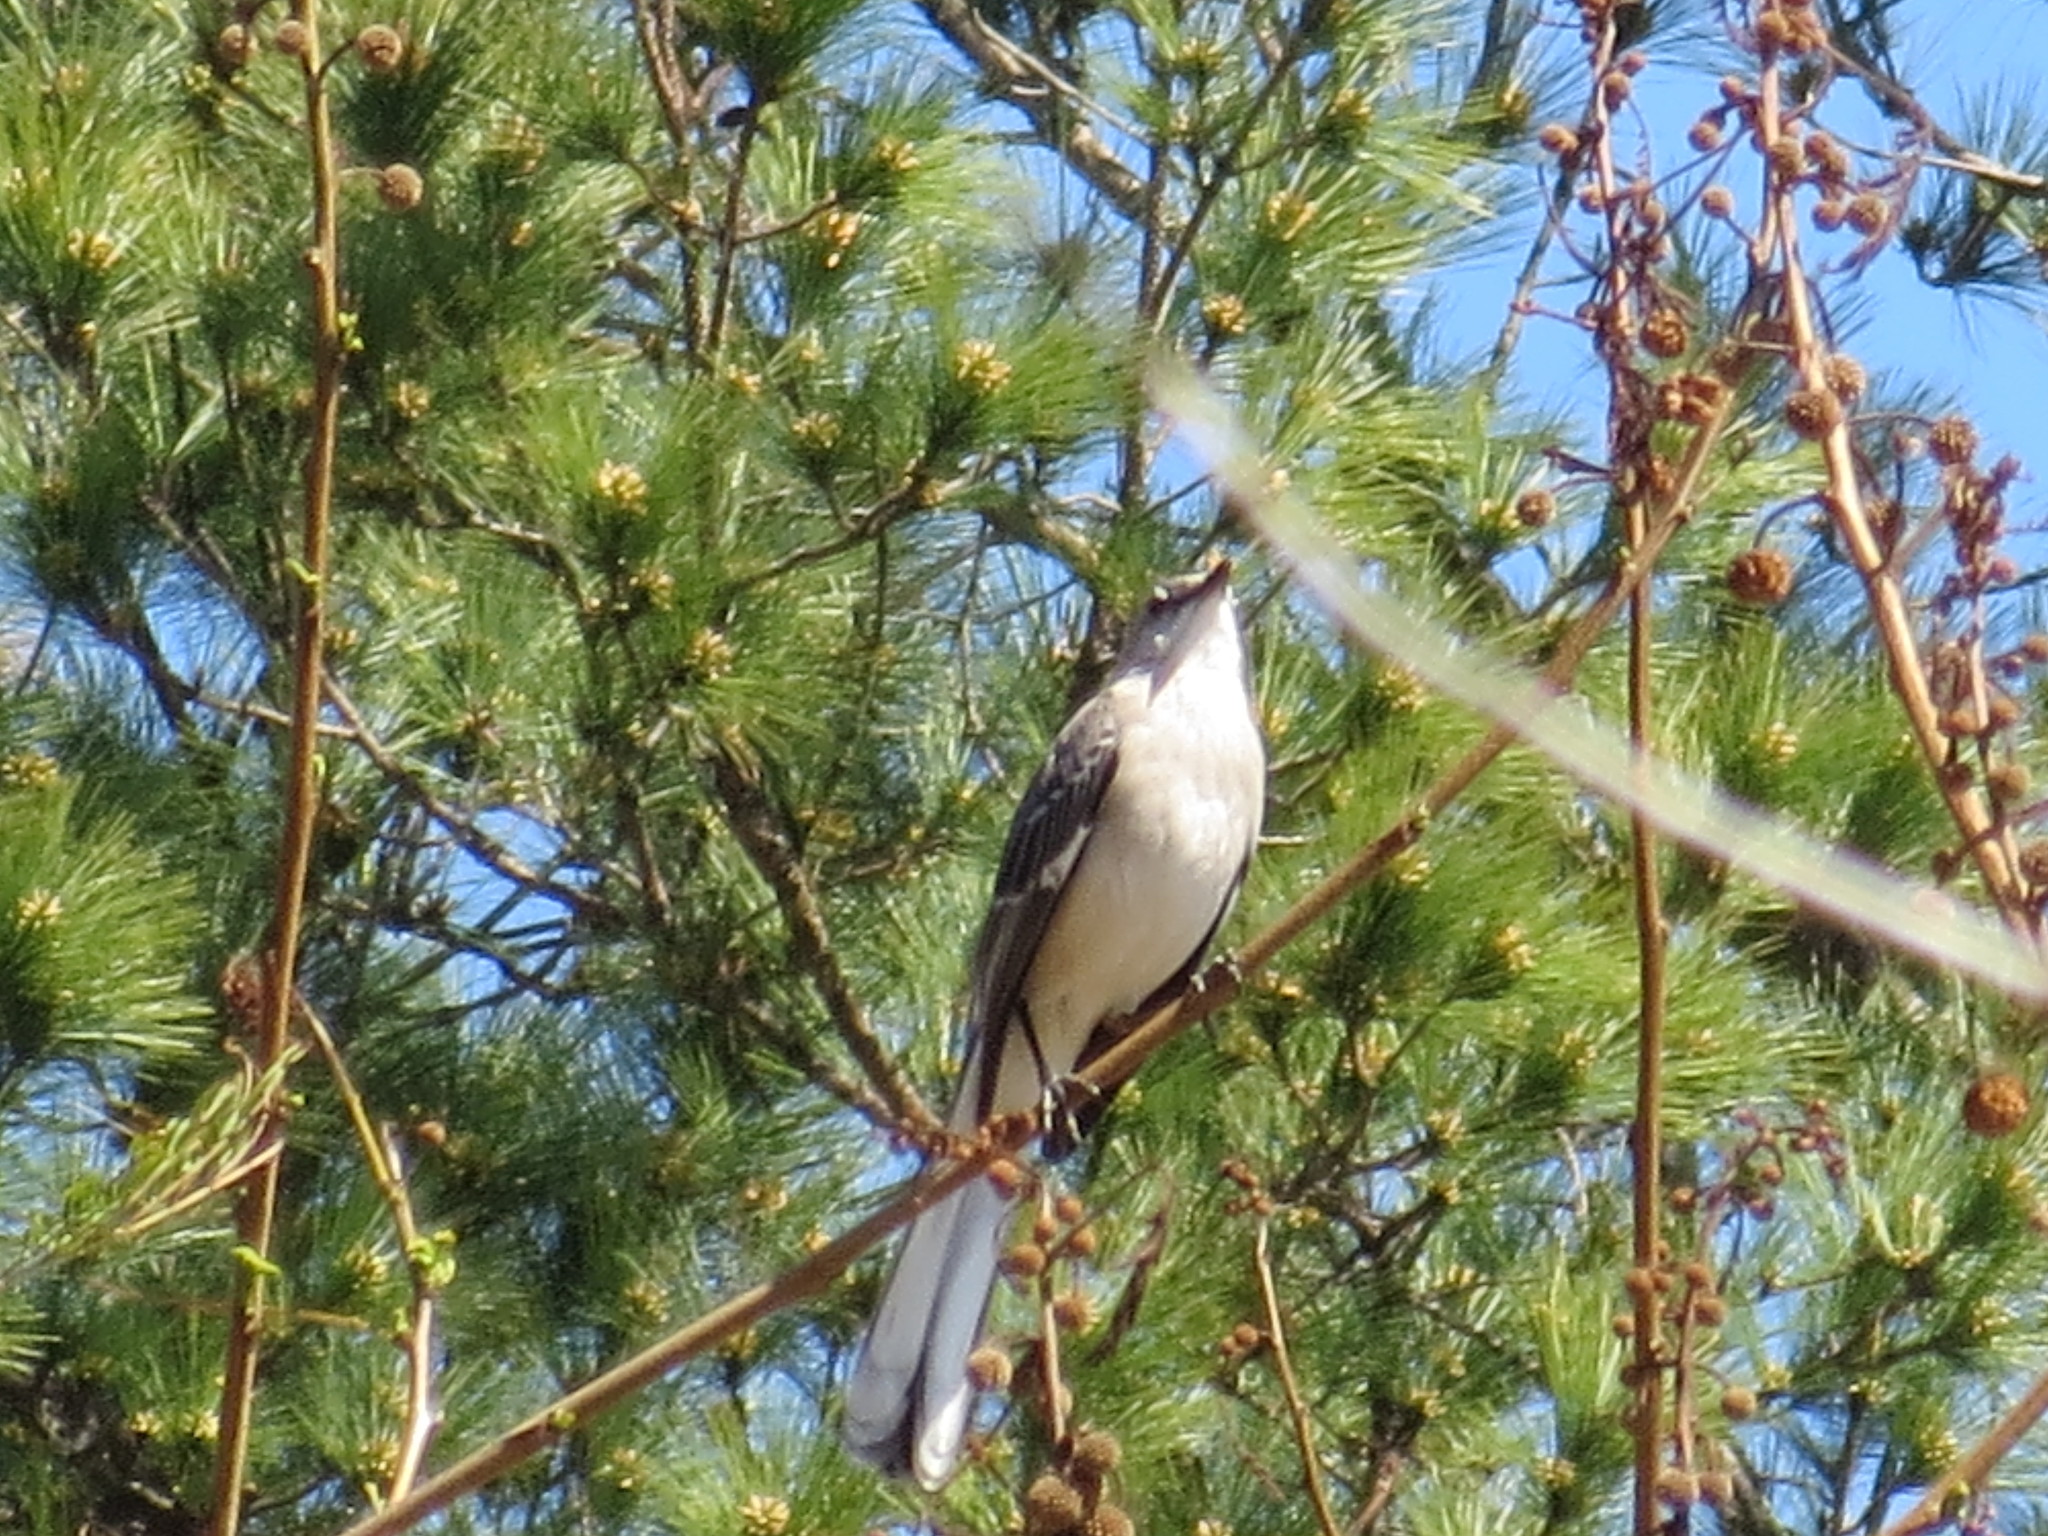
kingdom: Animalia
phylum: Chordata
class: Aves
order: Passeriformes
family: Mimidae
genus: Mimus
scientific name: Mimus polyglottos
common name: Northern mockingbird
